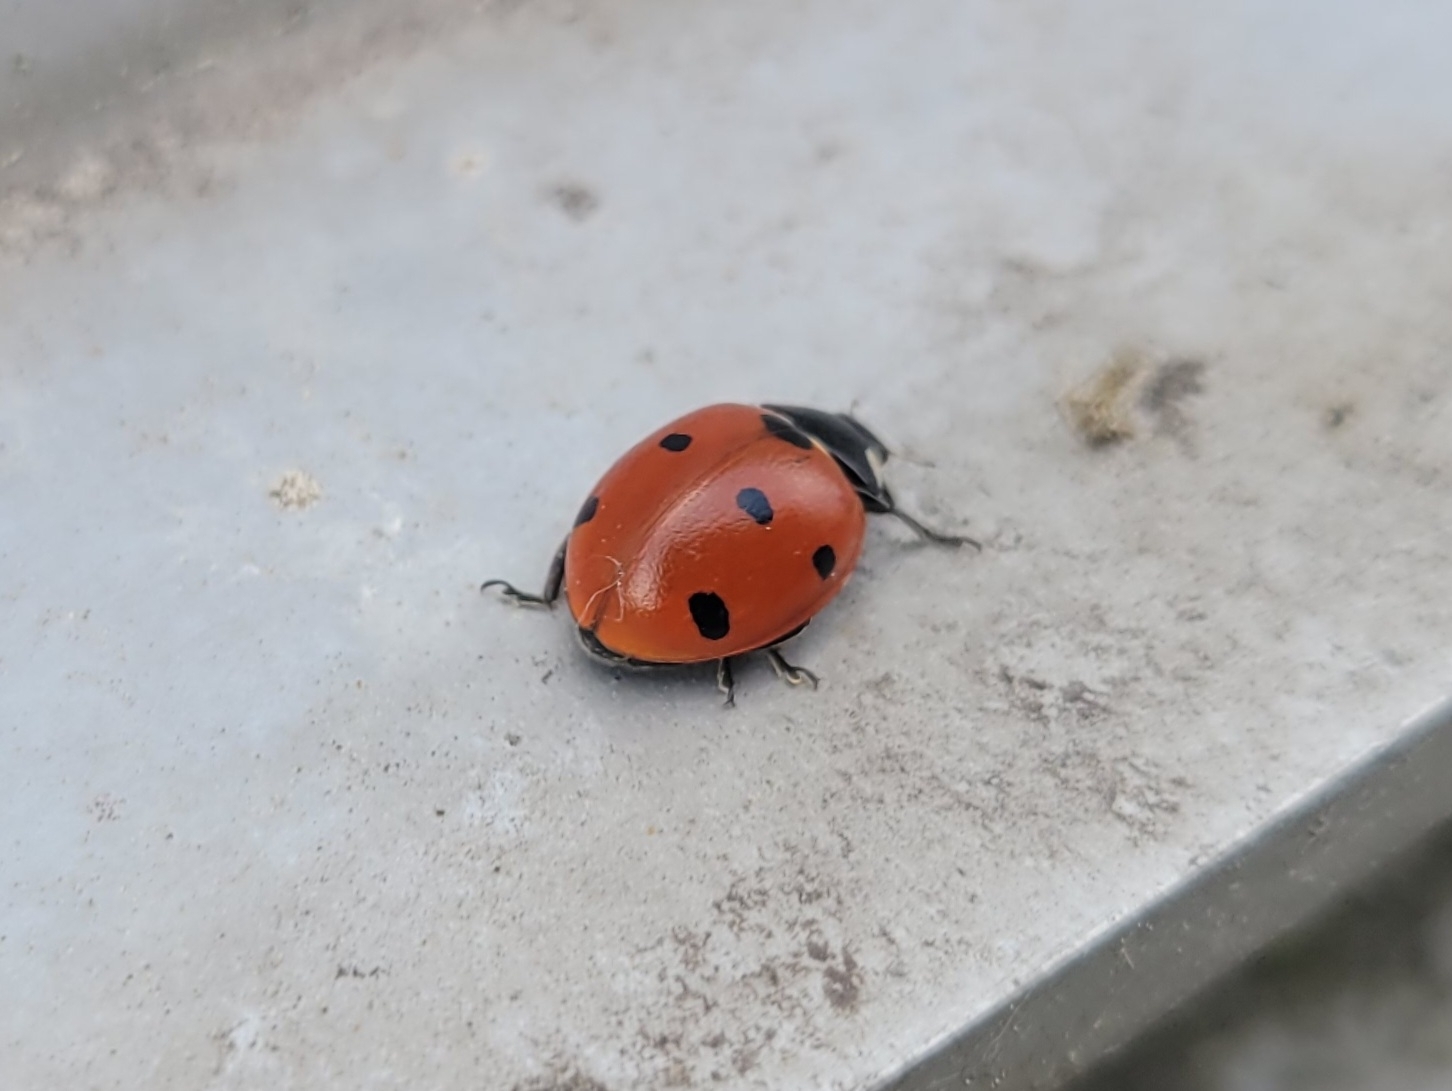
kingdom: Animalia
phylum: Arthropoda
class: Insecta
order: Coleoptera
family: Coccinellidae
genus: Coccinella
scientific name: Coccinella septempunctata
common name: Sevenspotted lady beetle
